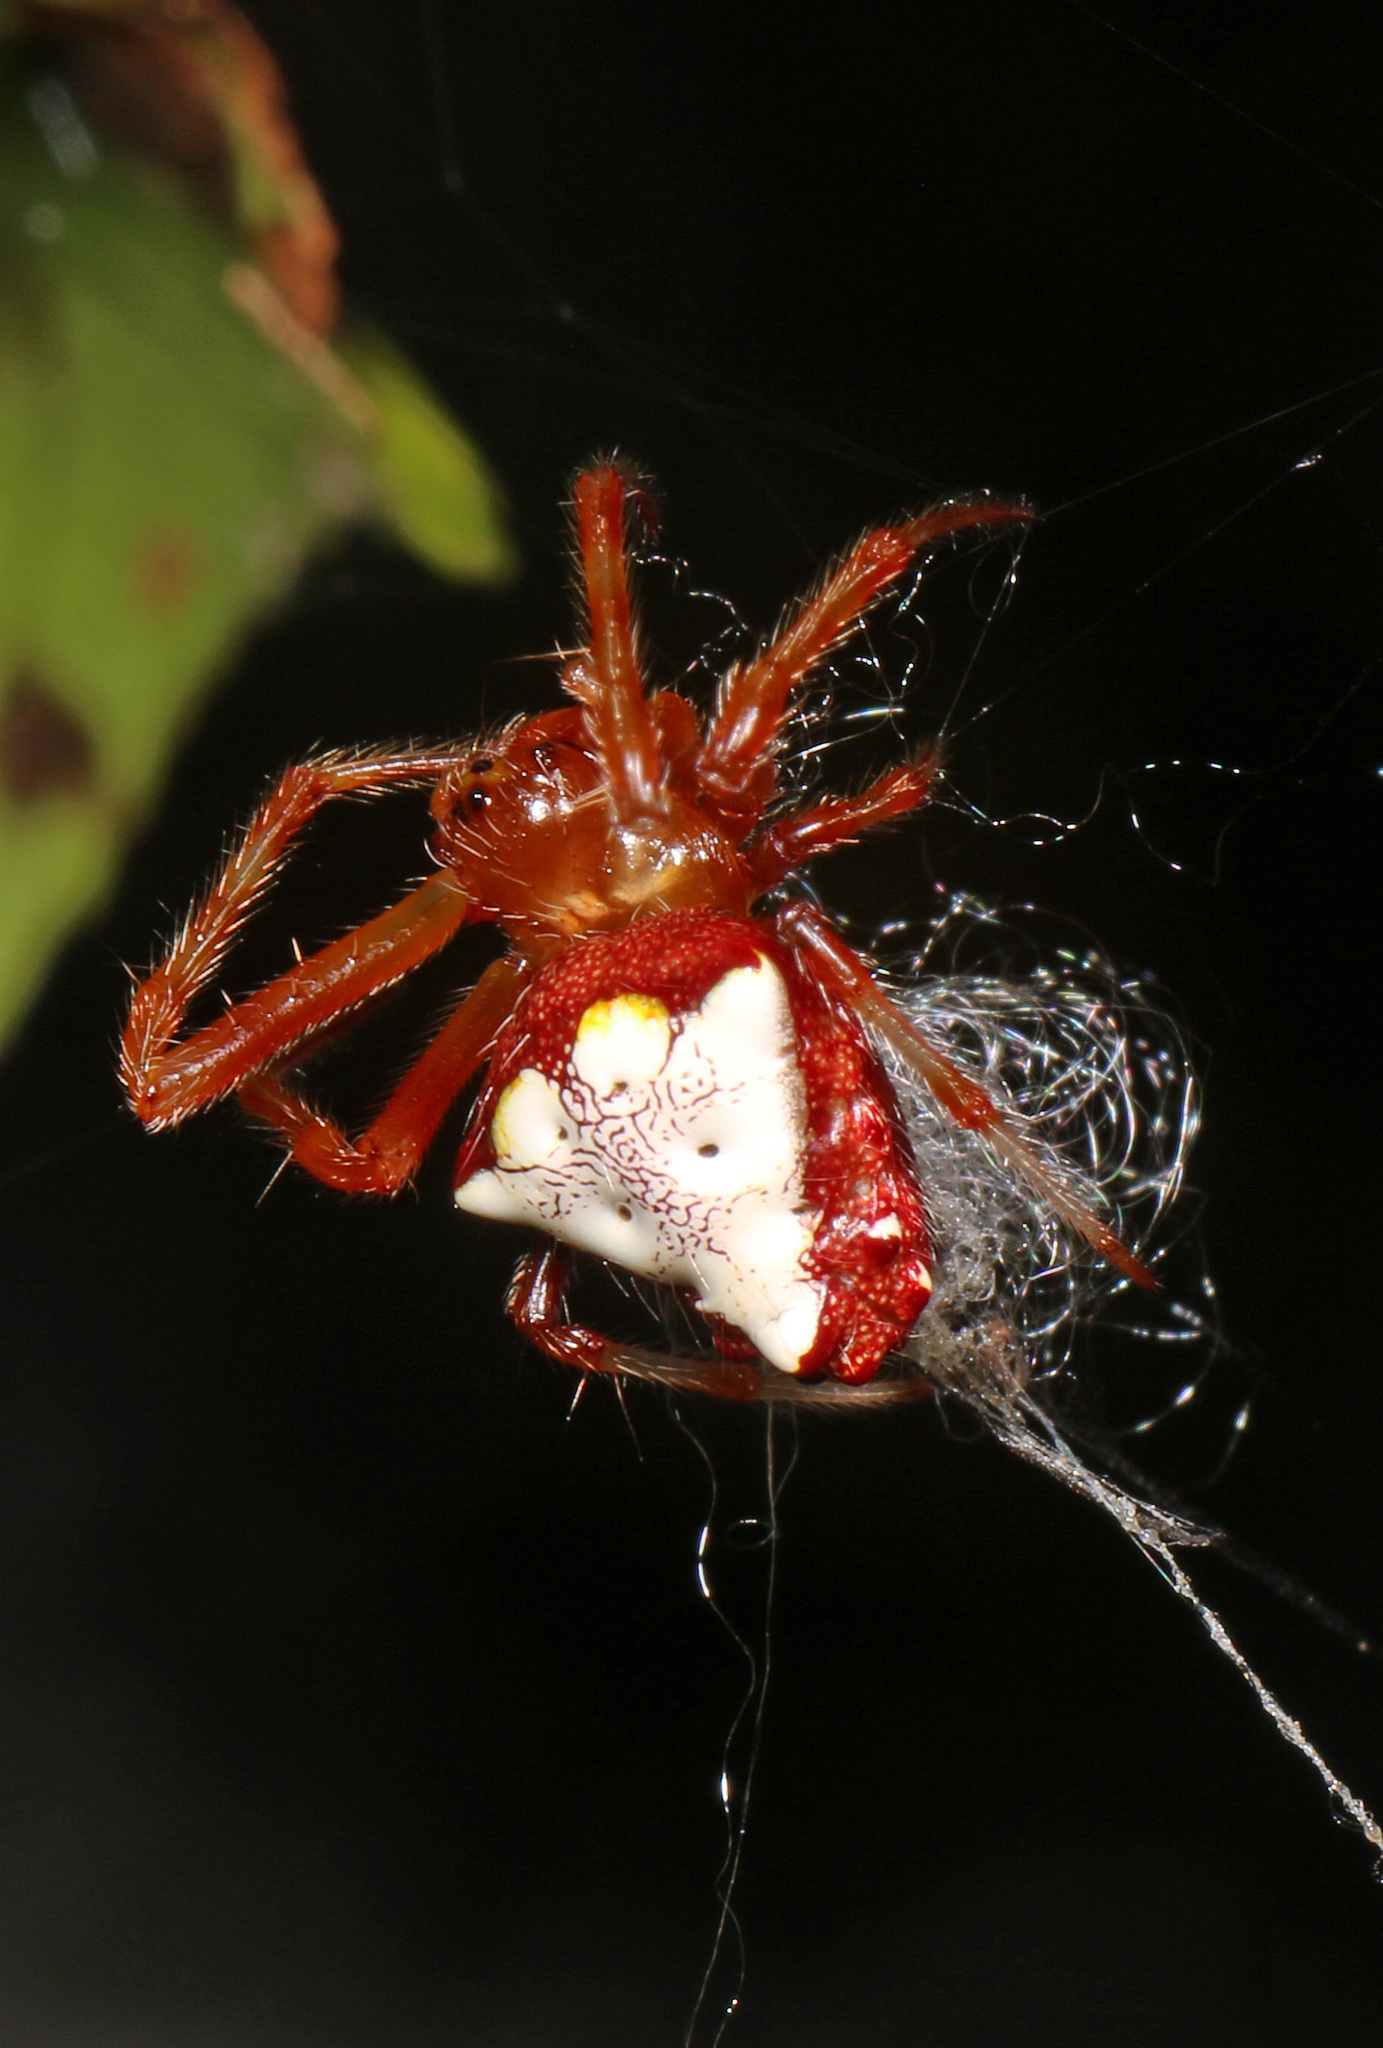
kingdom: Animalia
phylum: Arthropoda
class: Arachnida
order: Araneae
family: Araneidae
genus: Verrucosa
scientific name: Verrucosa arenata
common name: Orb weavers
